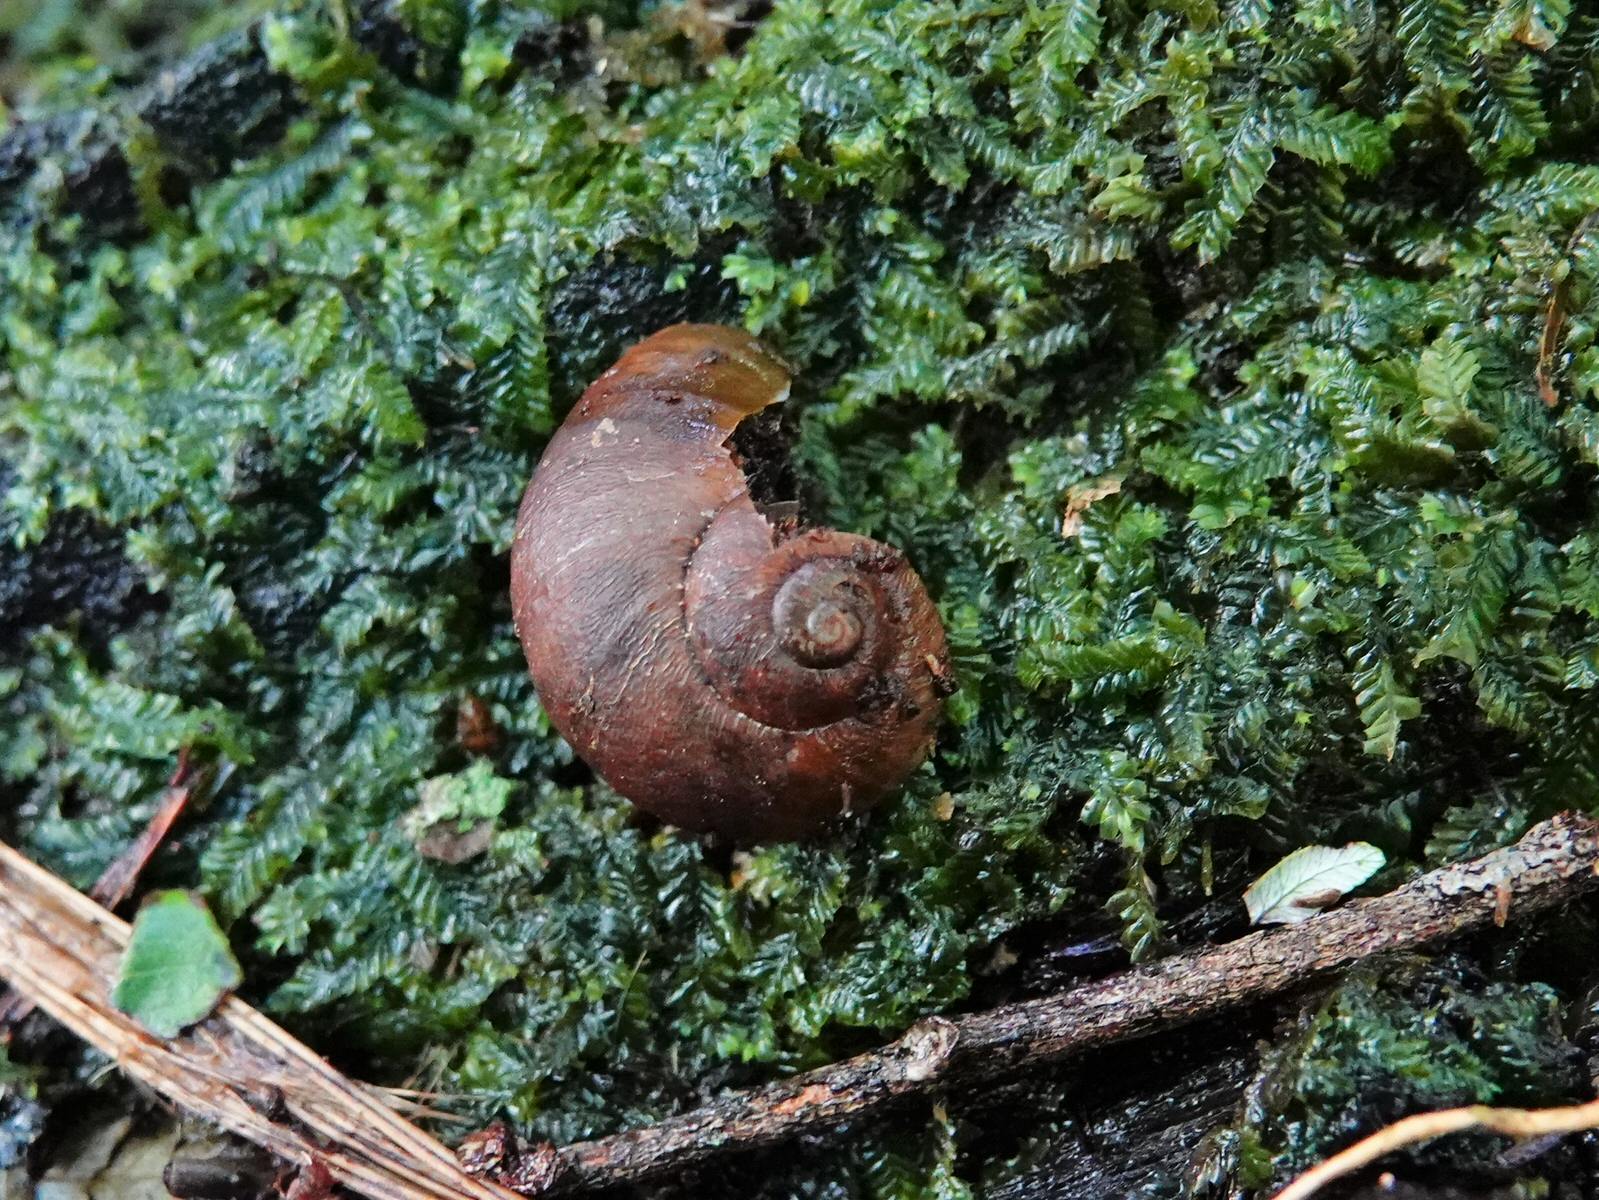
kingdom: Animalia
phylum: Mollusca
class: Gastropoda
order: Stylommatophora
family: Rhytididae
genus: Rhytida
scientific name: Rhytida greenwoodi
